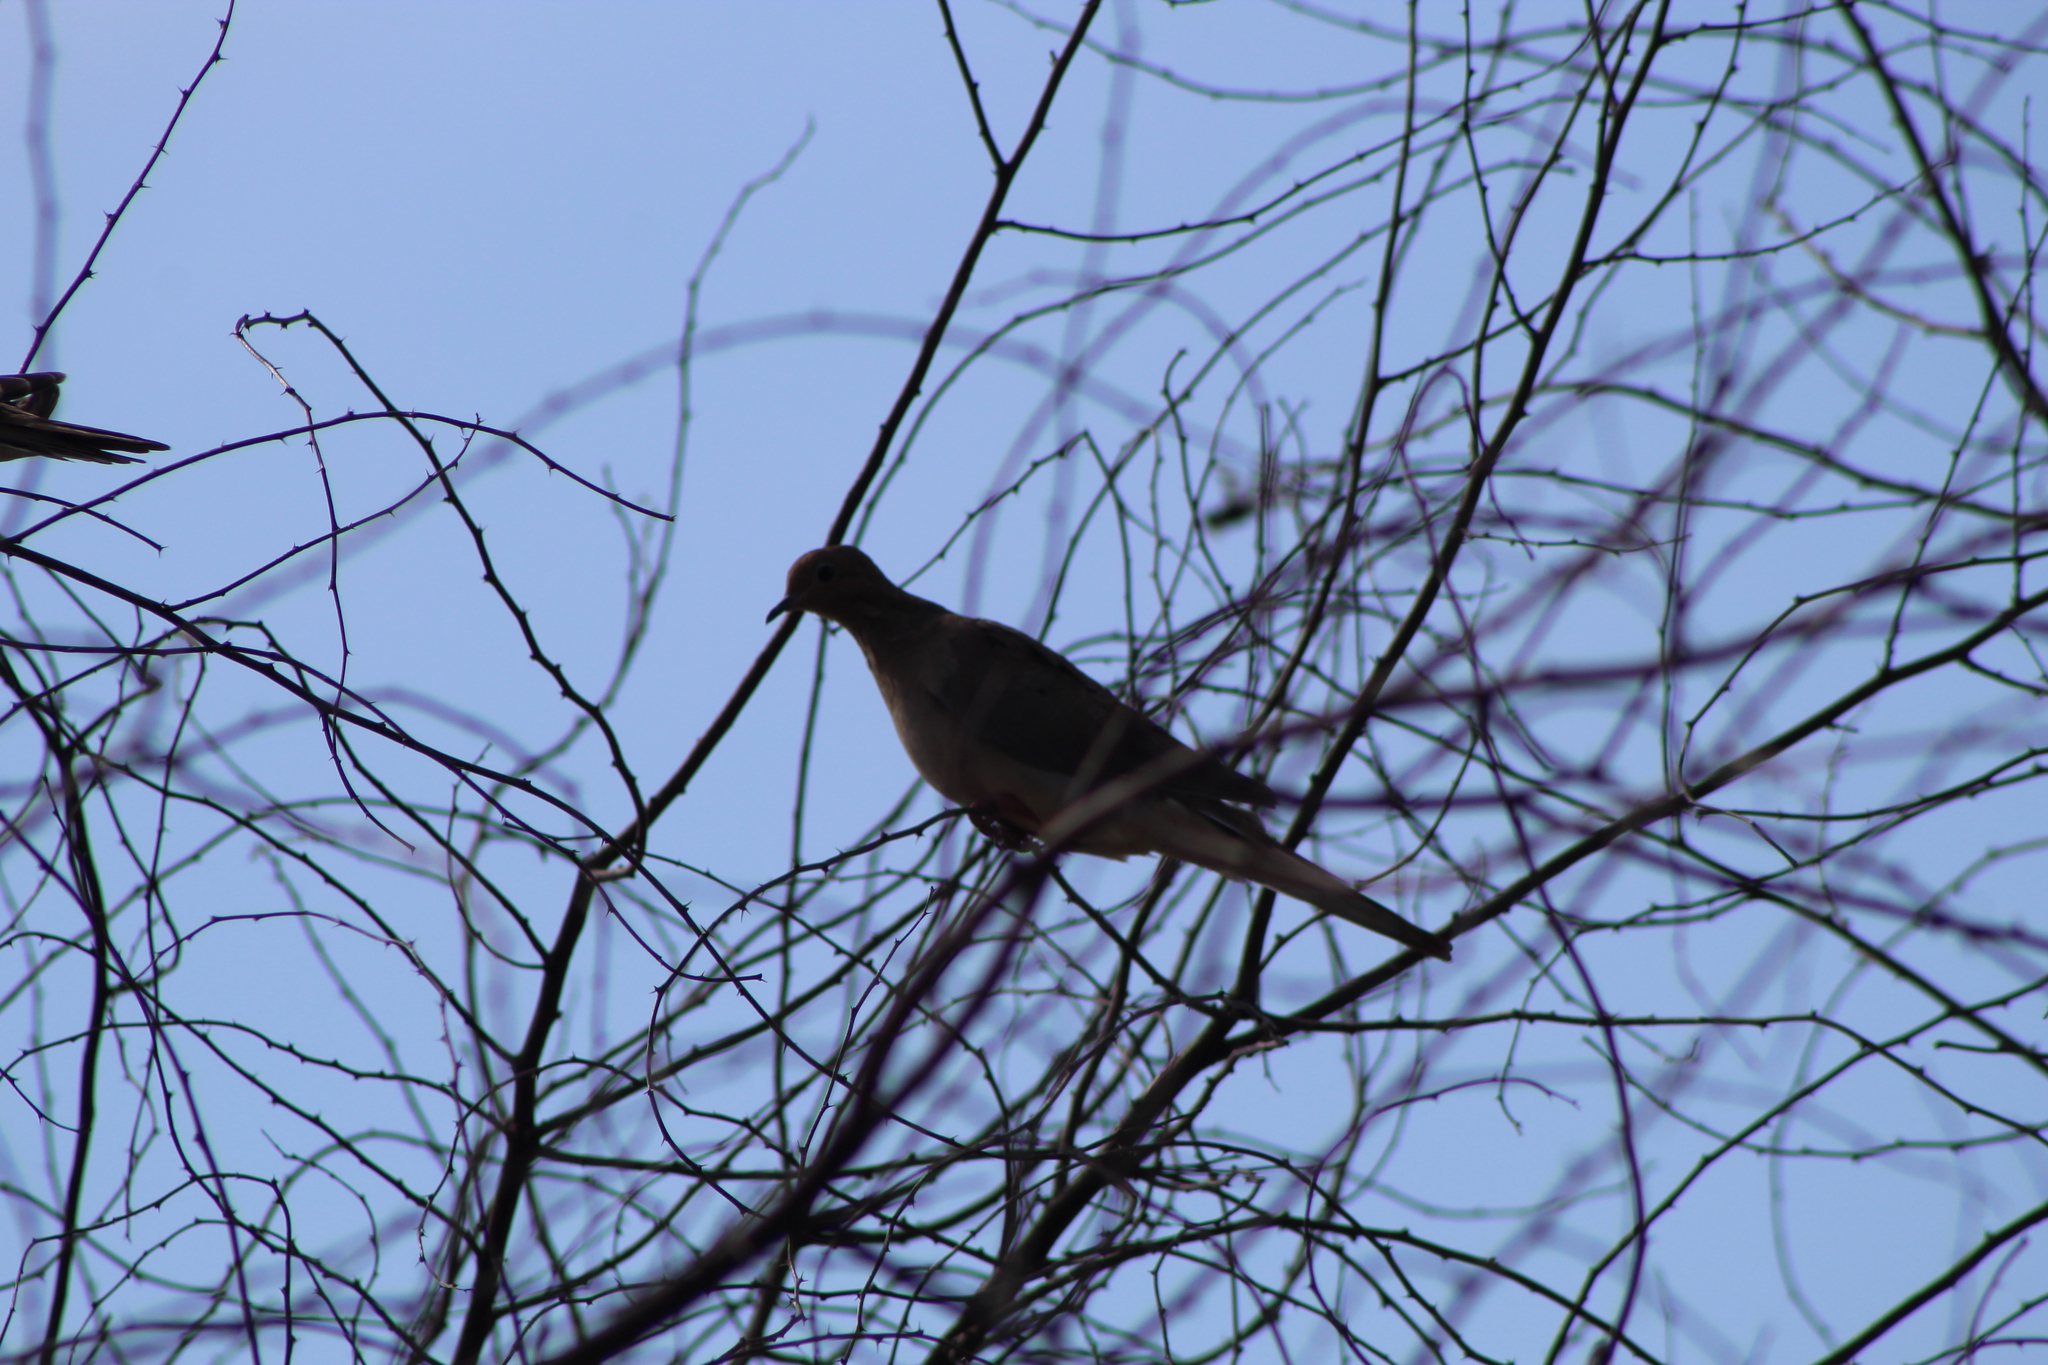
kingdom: Animalia
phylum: Chordata
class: Aves
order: Columbiformes
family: Columbidae
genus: Zenaida
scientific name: Zenaida macroura
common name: Mourning dove
